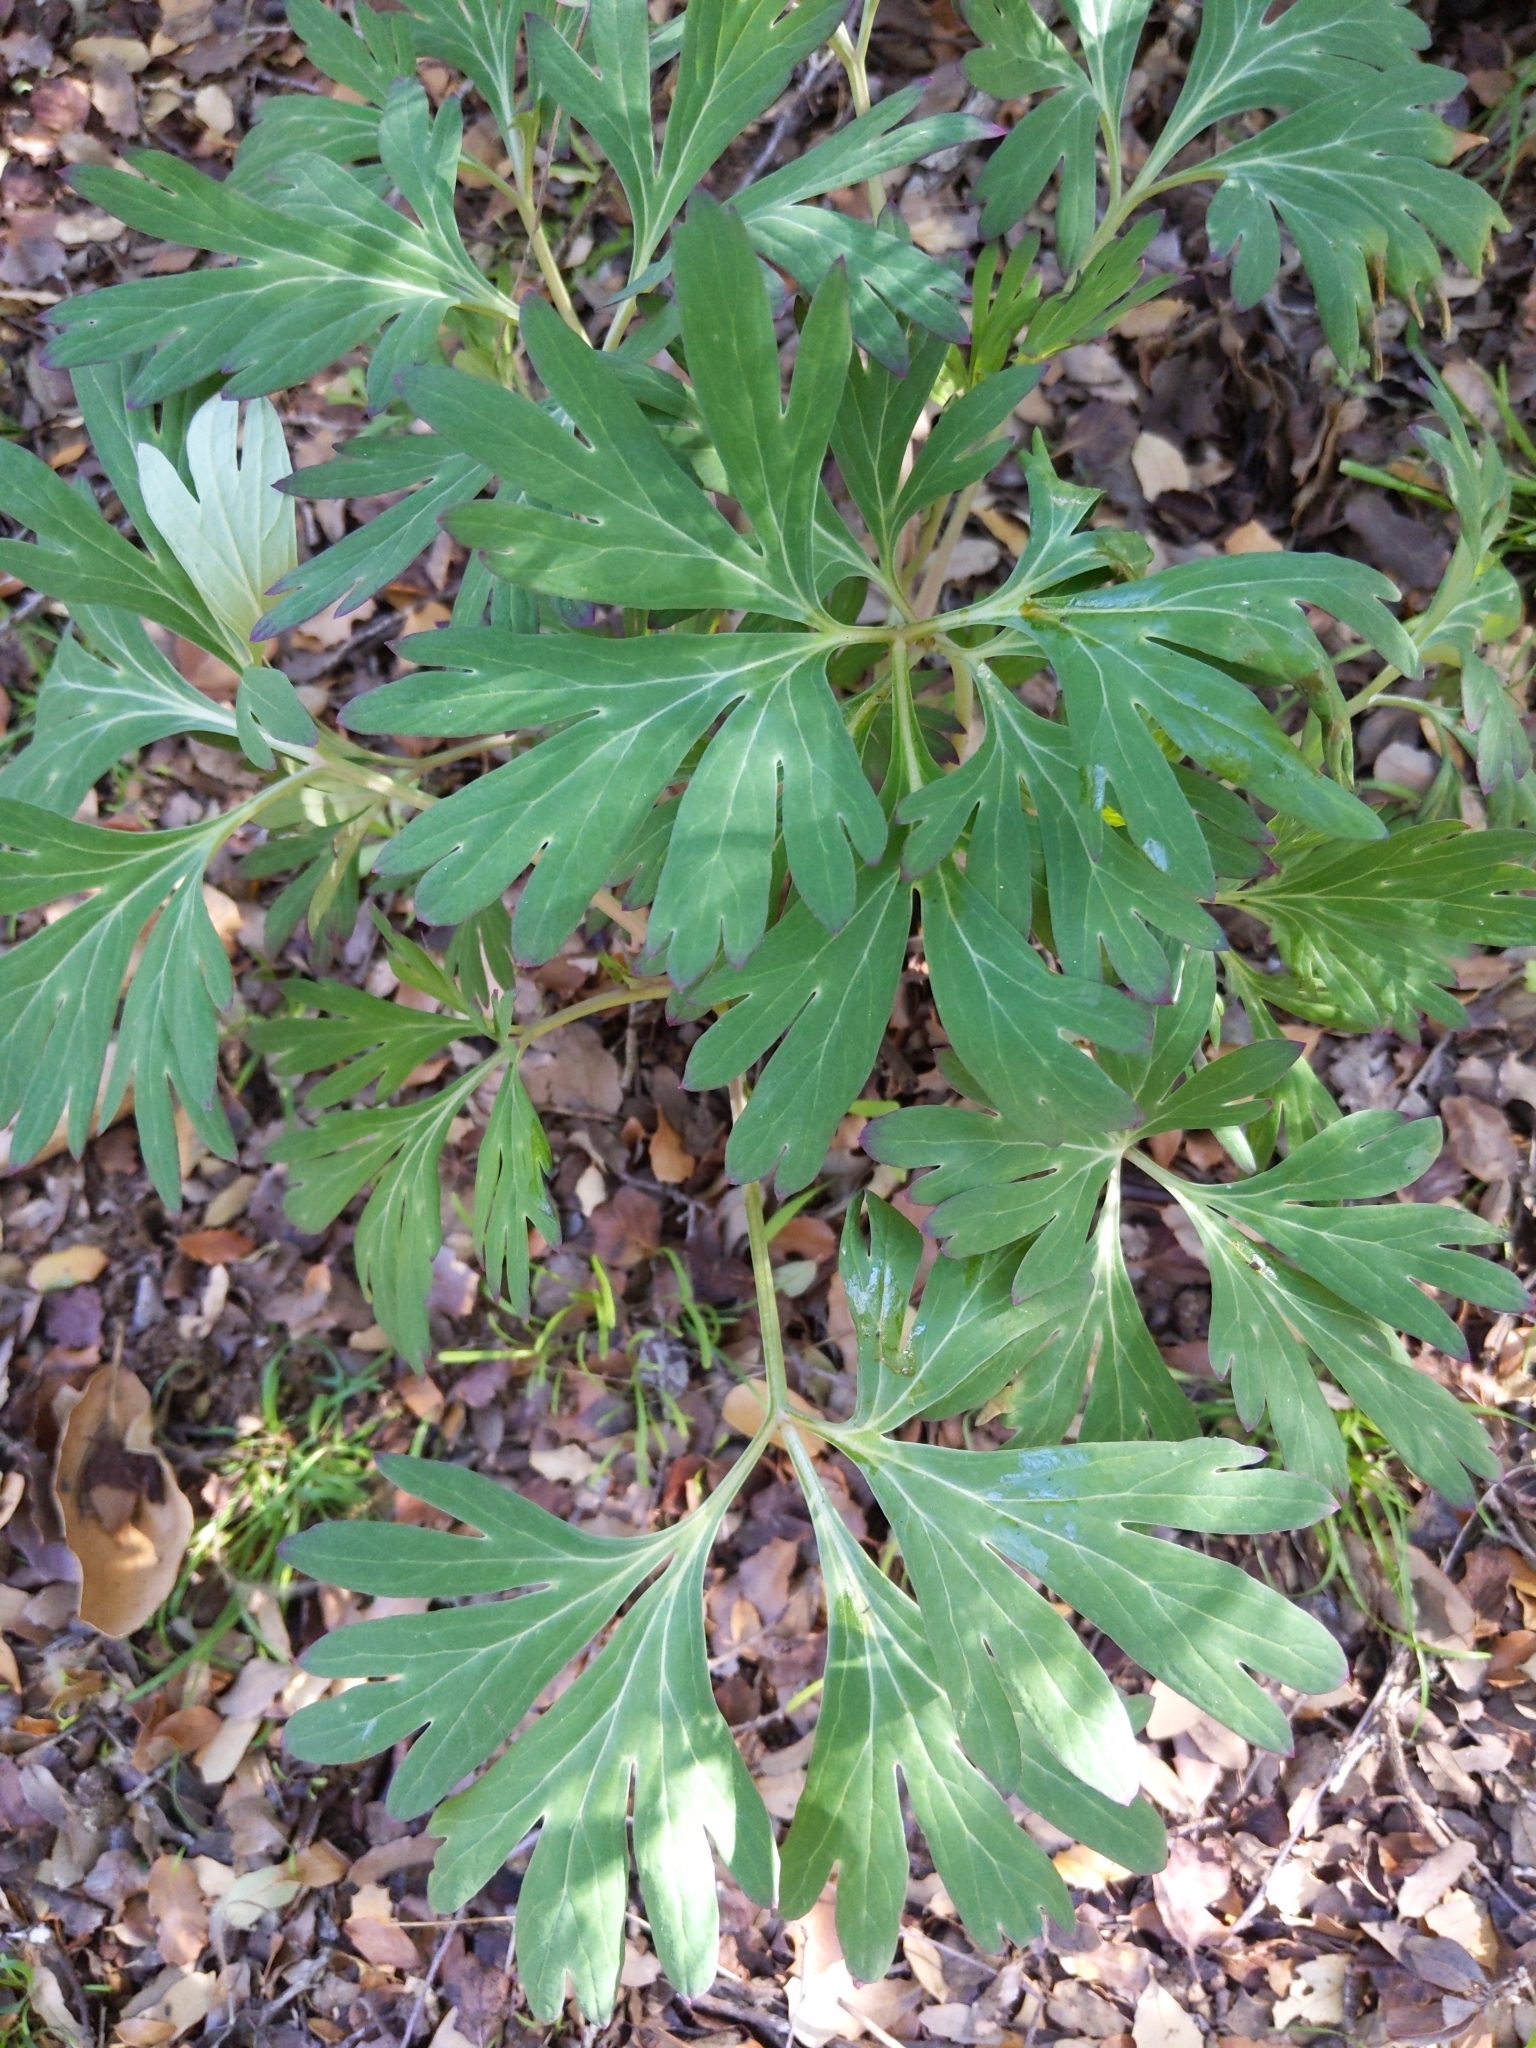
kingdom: Plantae
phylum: Tracheophyta
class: Magnoliopsida
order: Saxifragales
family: Paeoniaceae
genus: Paeonia
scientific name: Paeonia californica
